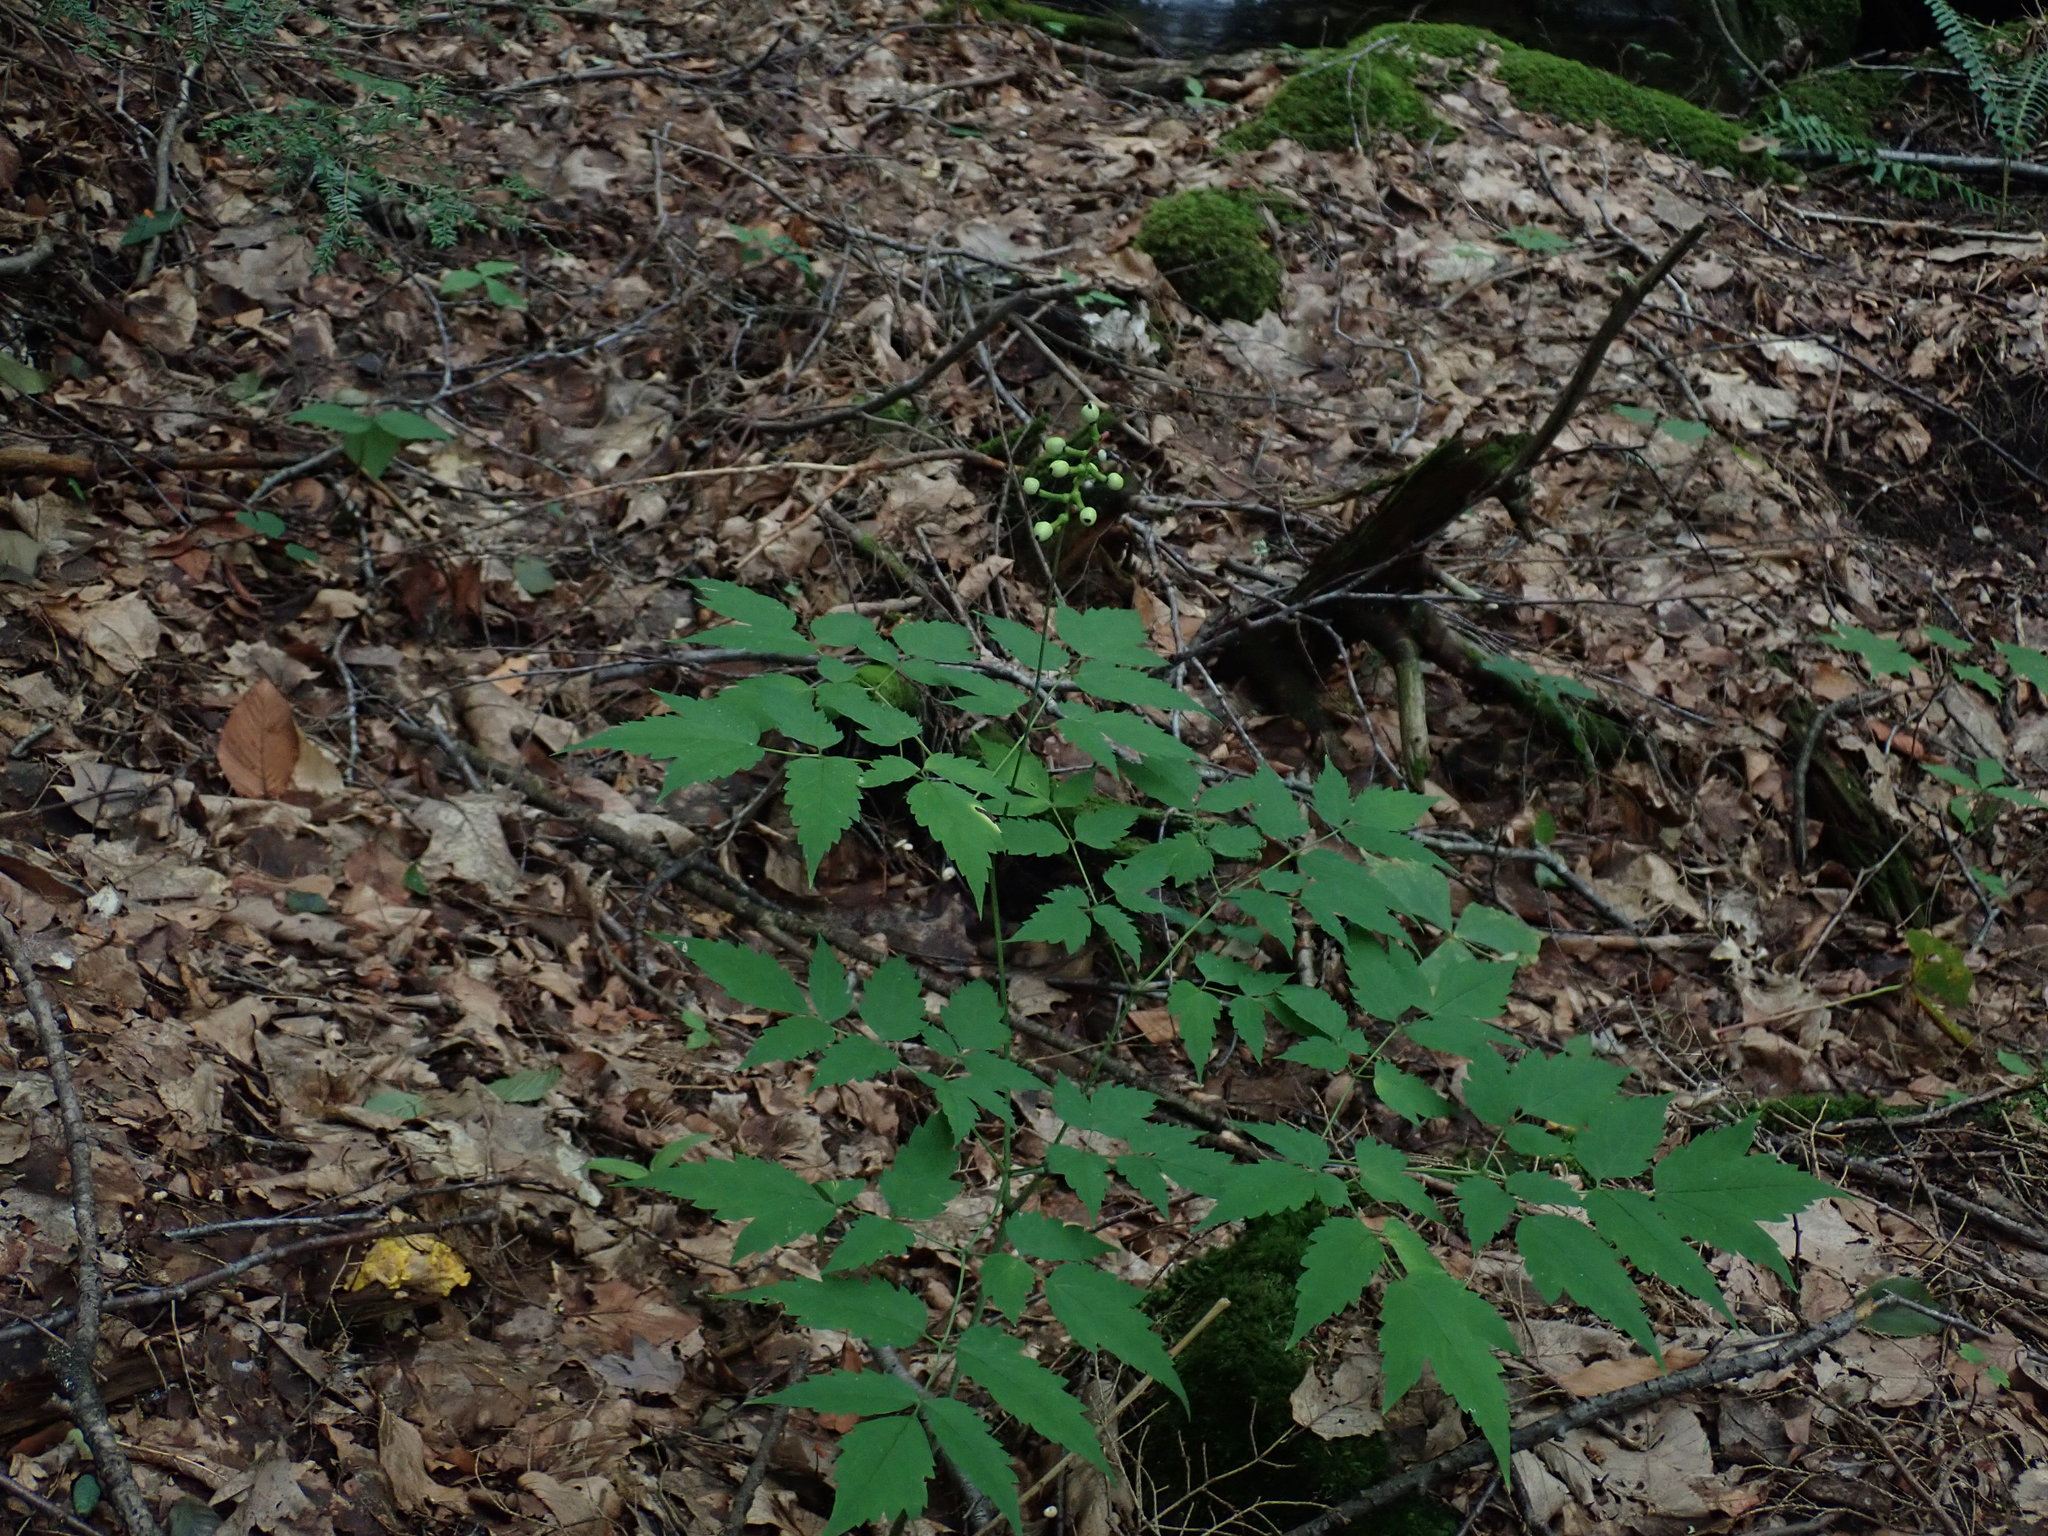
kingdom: Plantae
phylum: Tracheophyta
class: Magnoliopsida
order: Ranunculales
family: Ranunculaceae
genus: Actaea
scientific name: Actaea pachypoda
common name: Doll's-eyes
